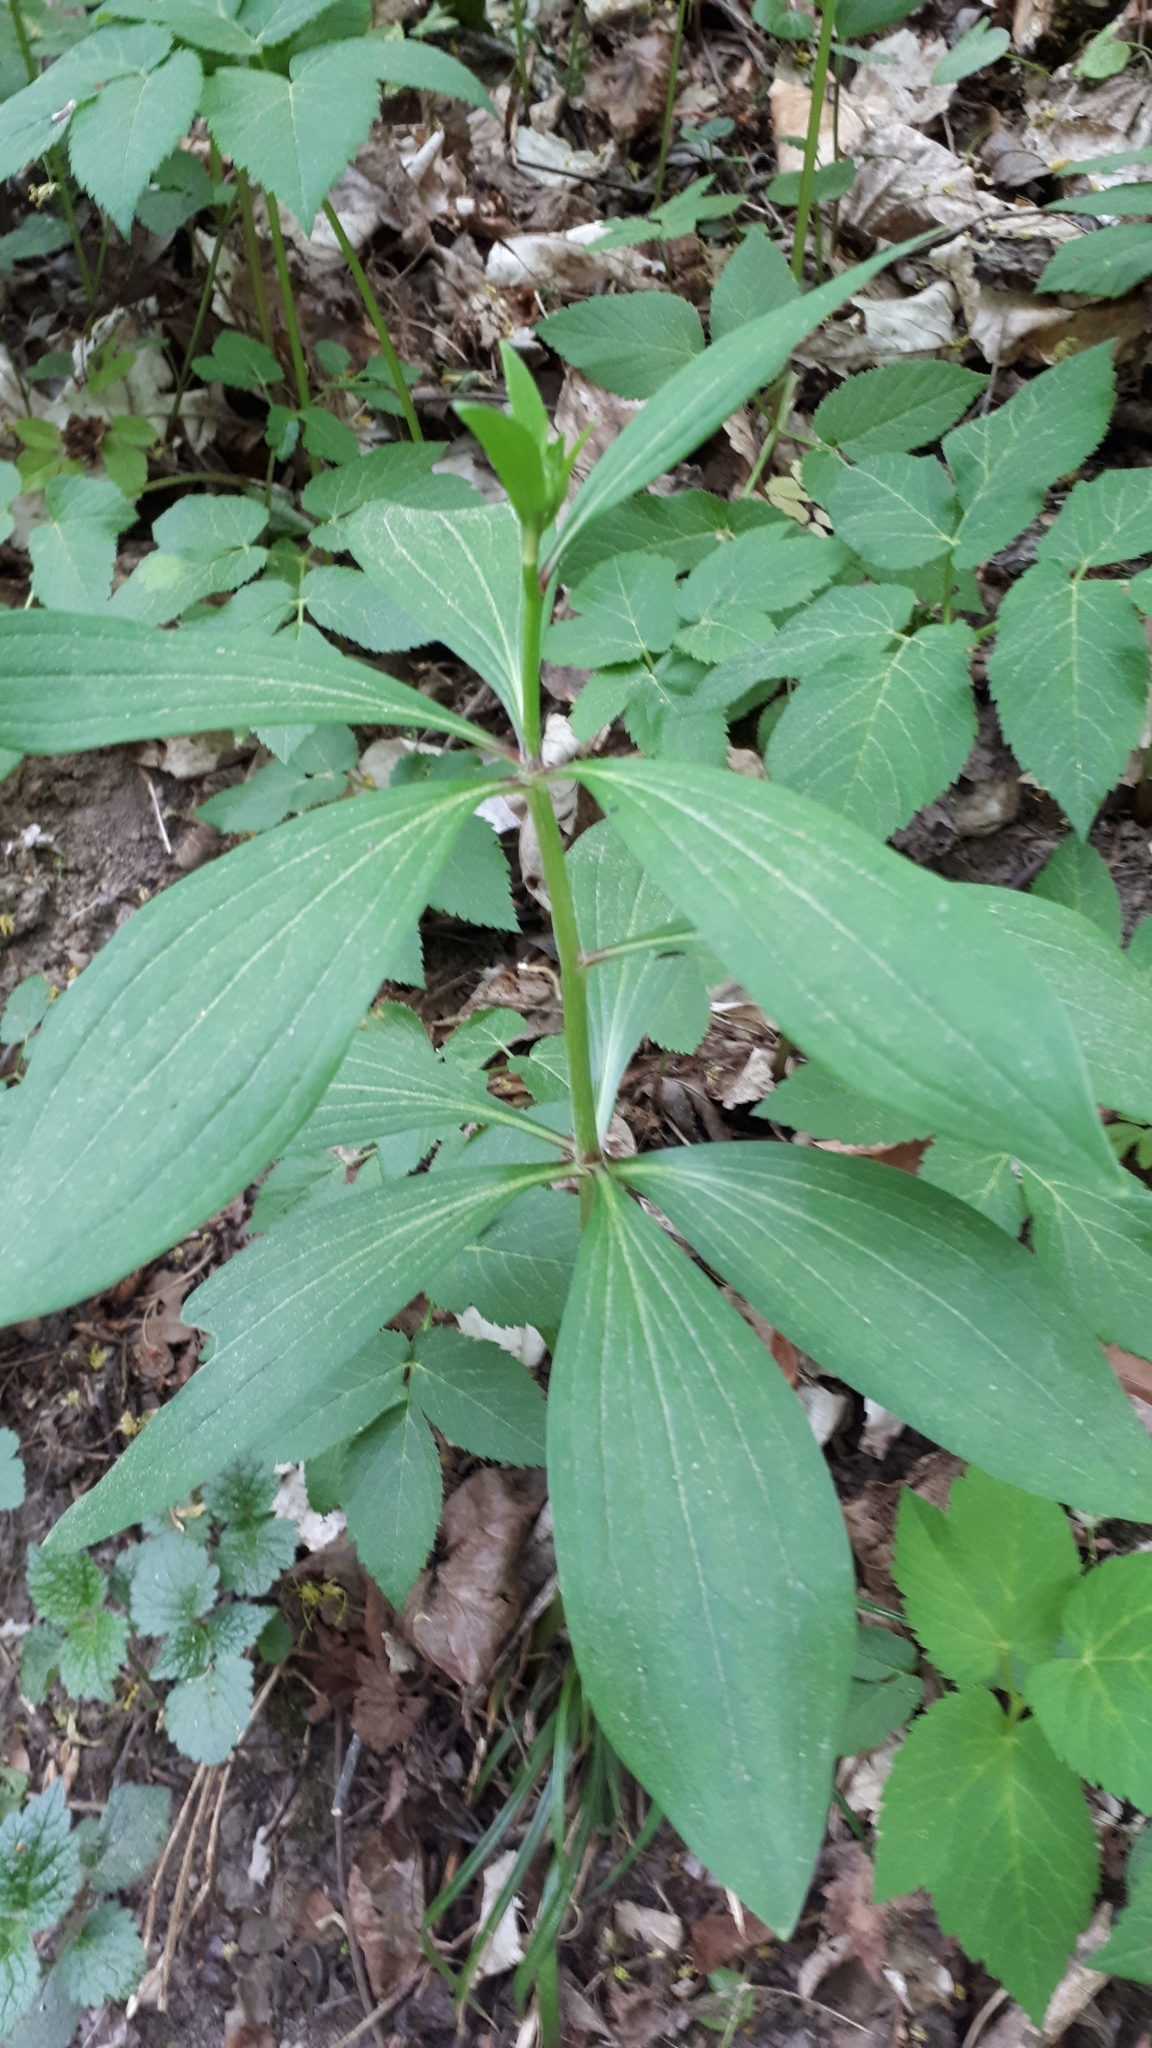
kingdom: Plantae
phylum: Tracheophyta
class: Liliopsida
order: Liliales
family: Liliaceae
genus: Lilium
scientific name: Lilium martagon
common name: Martagon lily
